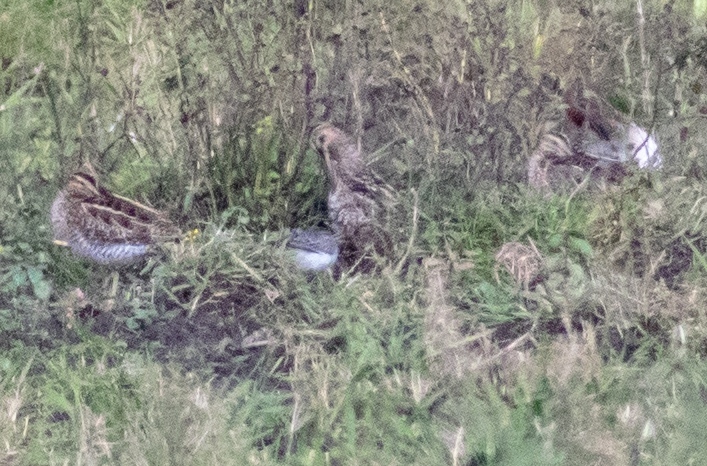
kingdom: Animalia
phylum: Chordata
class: Aves
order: Charadriiformes
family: Scolopacidae
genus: Gallinago
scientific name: Gallinago gallinago
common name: Common snipe
